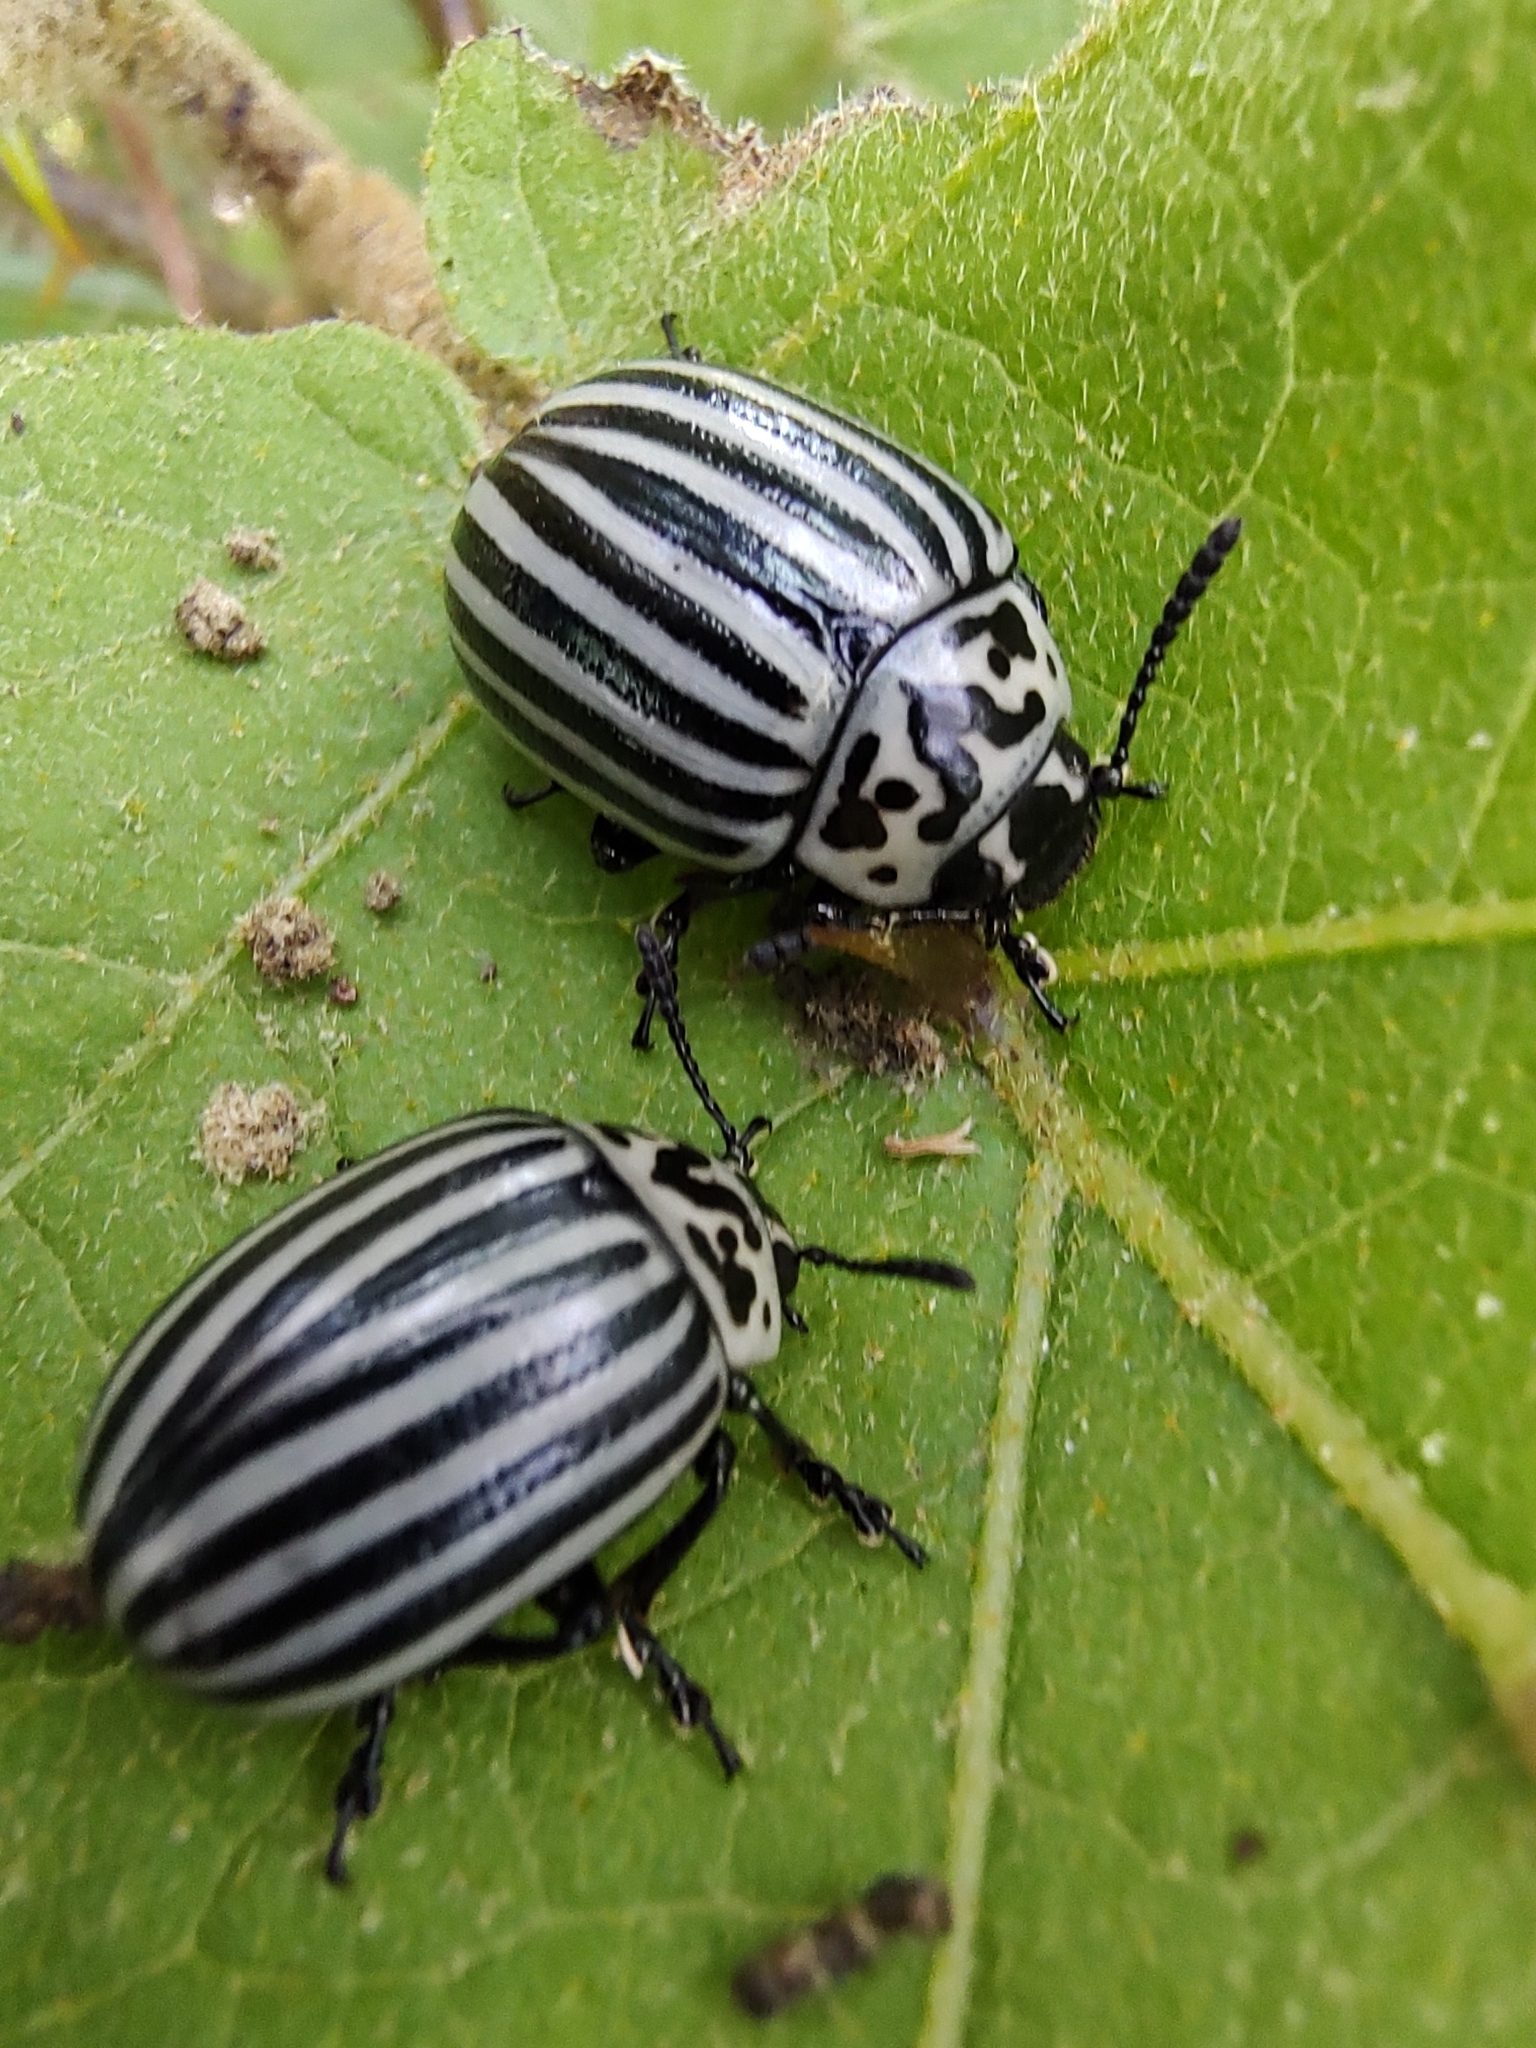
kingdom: Animalia
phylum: Arthropoda
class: Insecta
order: Coleoptera
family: Chrysomelidae
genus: Leptinotarsa
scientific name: Leptinotarsa
